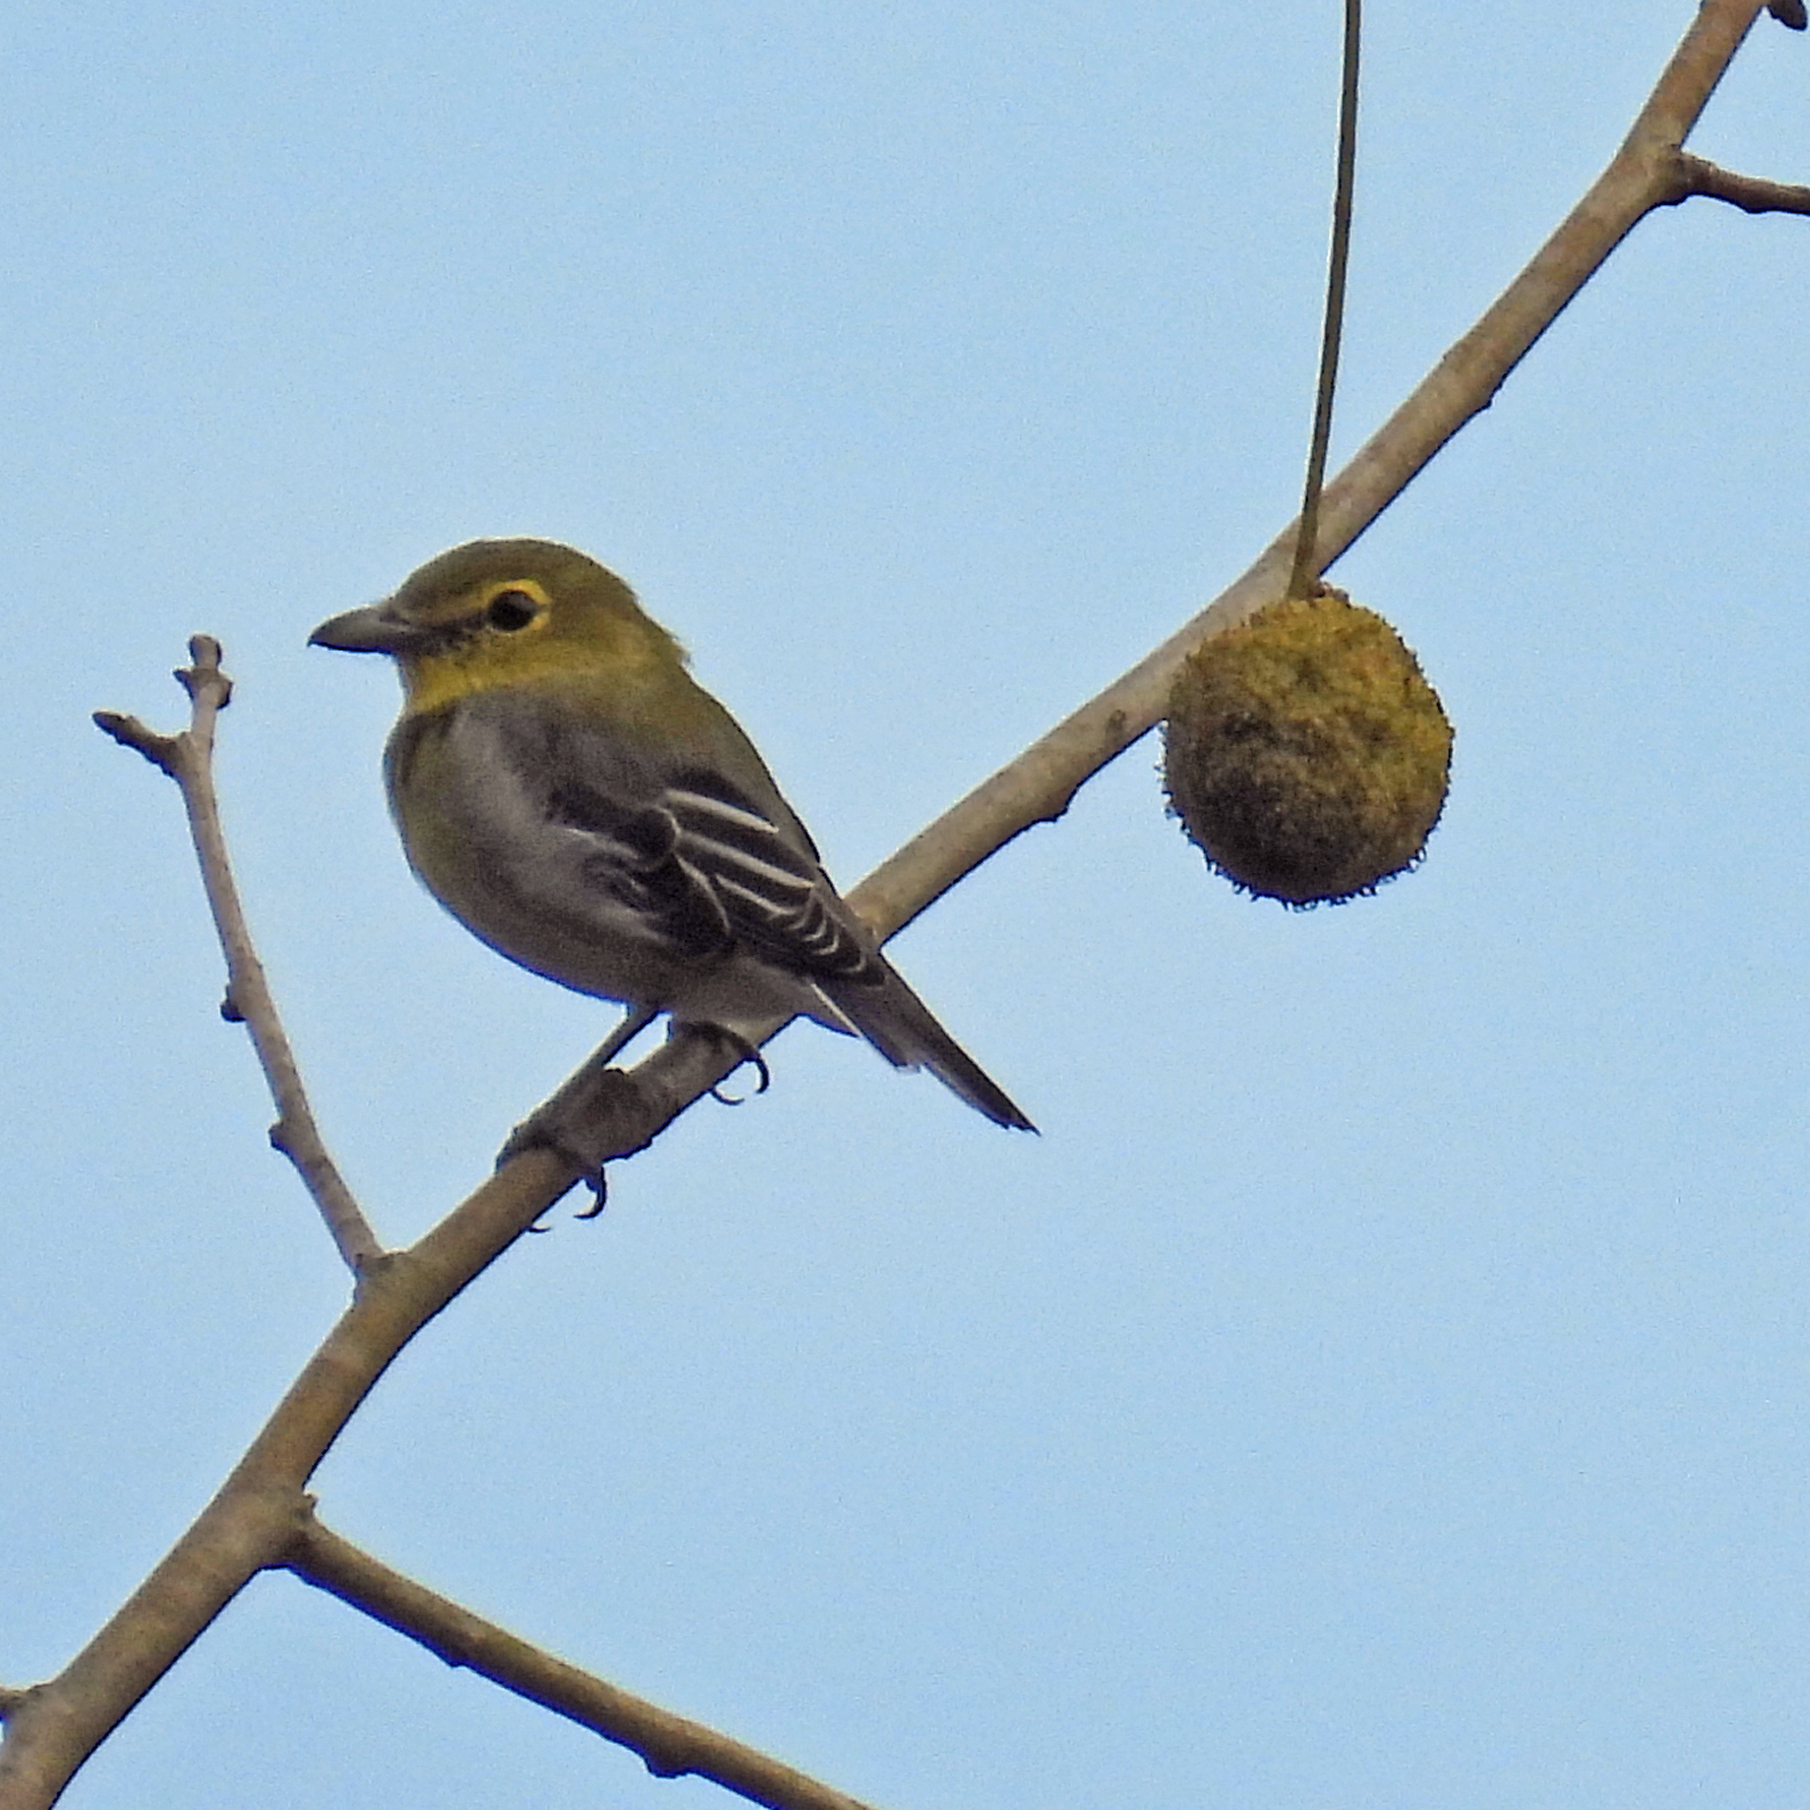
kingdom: Animalia
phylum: Chordata
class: Aves
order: Passeriformes
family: Vireonidae
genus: Vireo
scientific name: Vireo flavifrons
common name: Yellow-throated vireo
